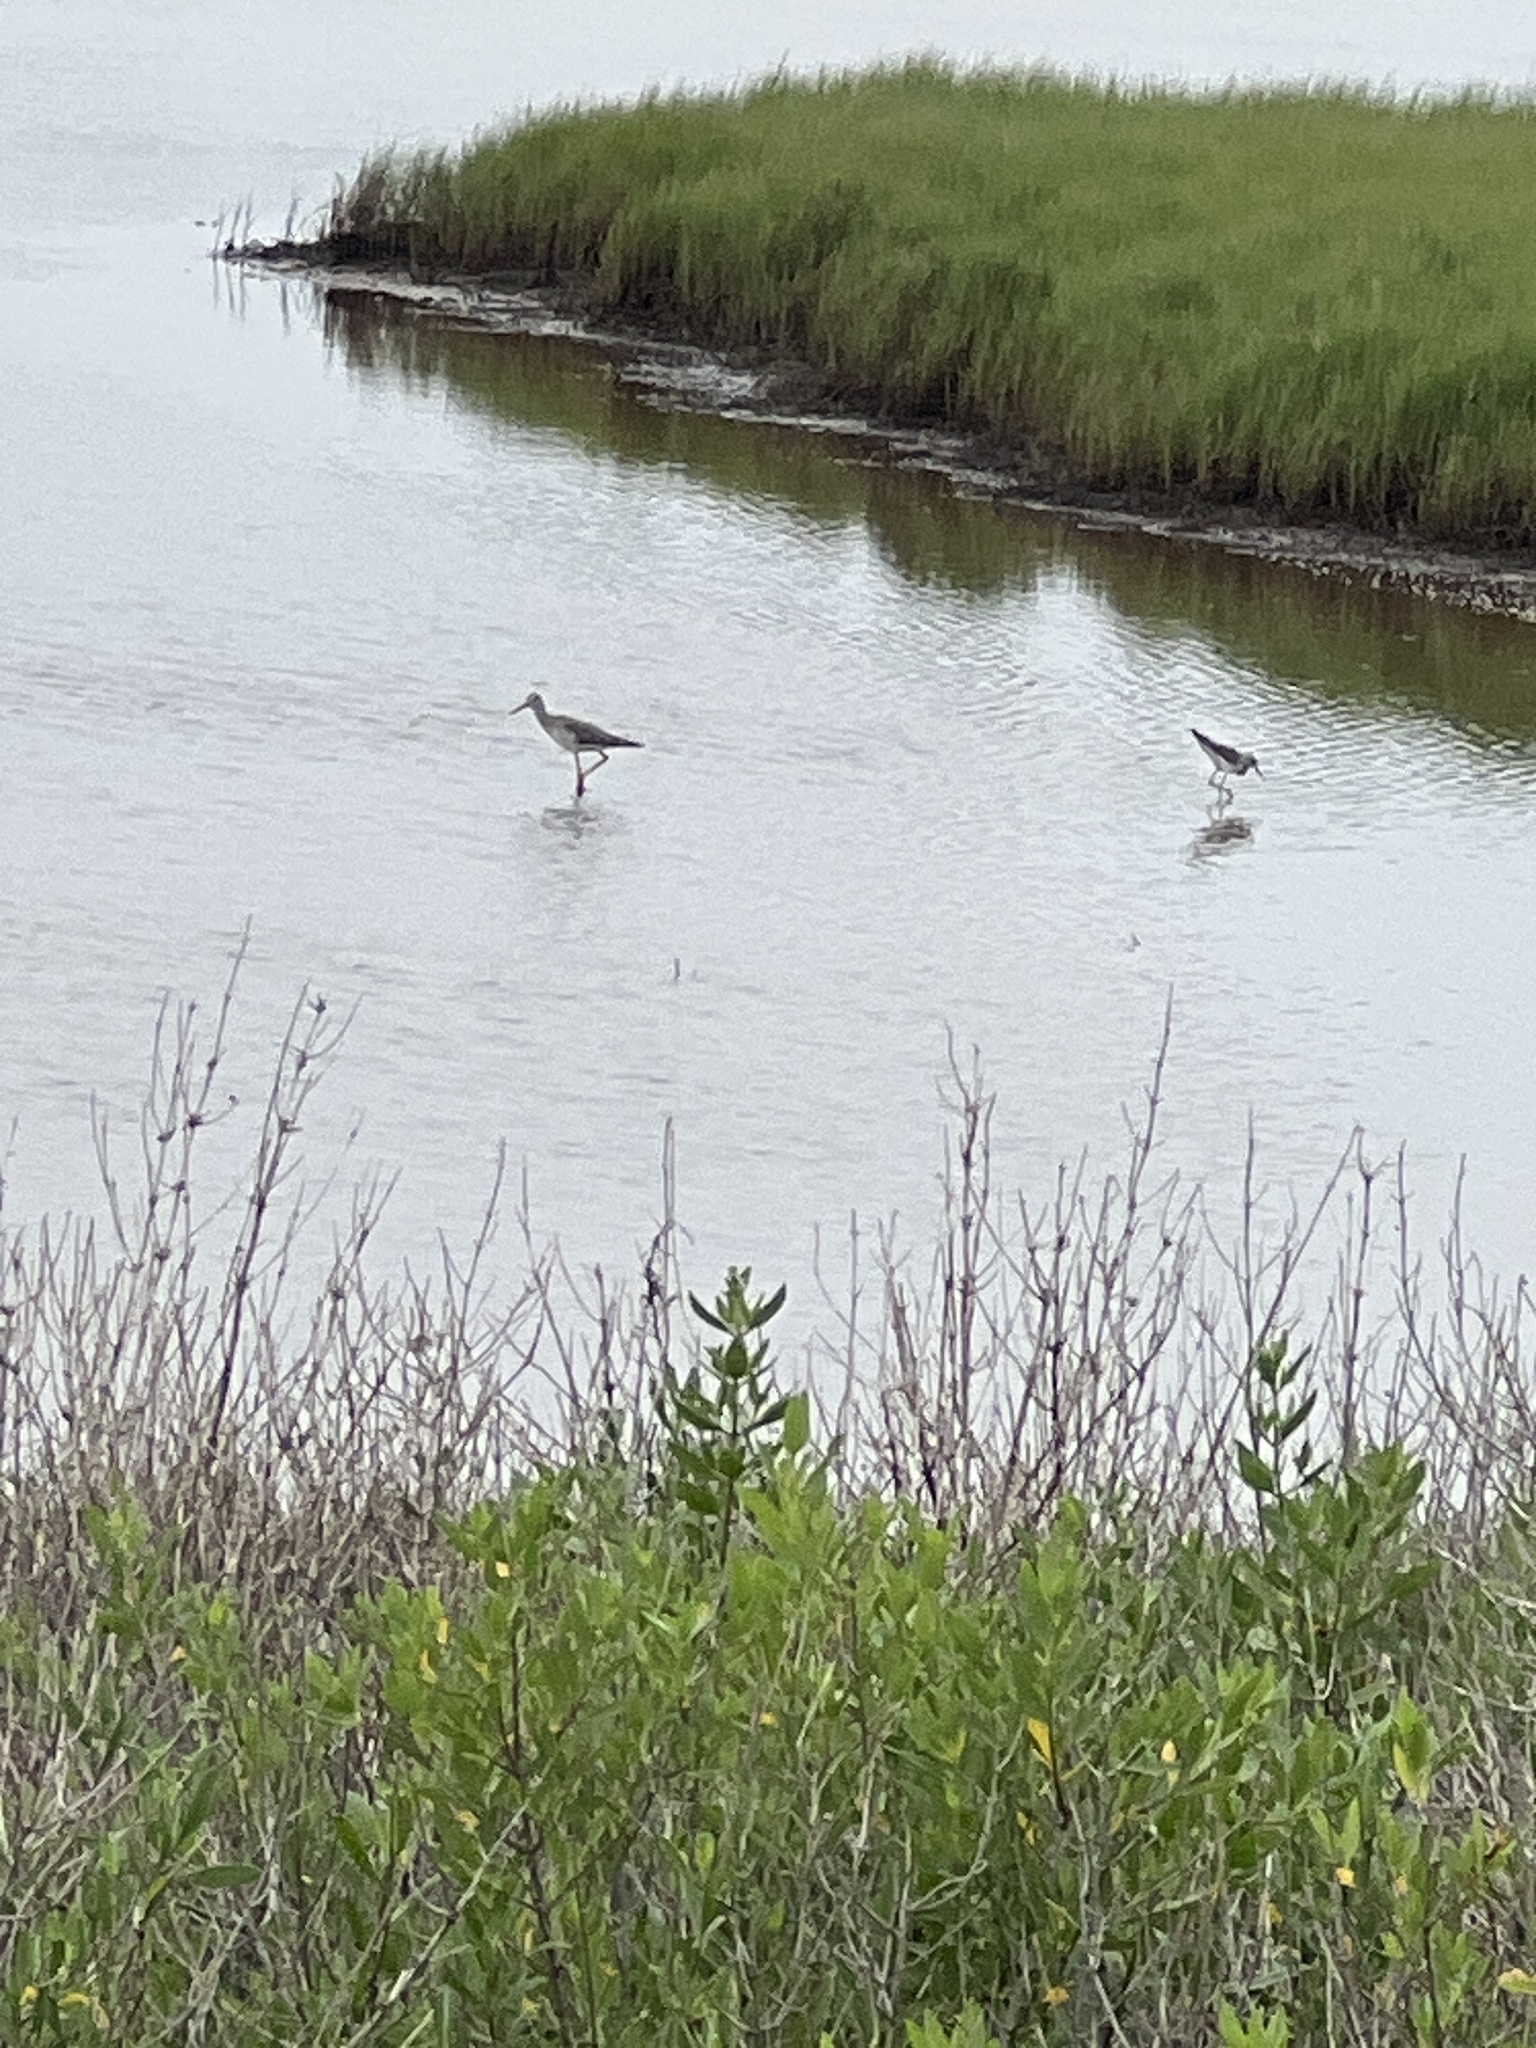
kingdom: Animalia
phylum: Chordata
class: Aves
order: Charadriiformes
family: Scolopacidae
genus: Tringa
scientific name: Tringa melanoleuca
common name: Greater yellowlegs
